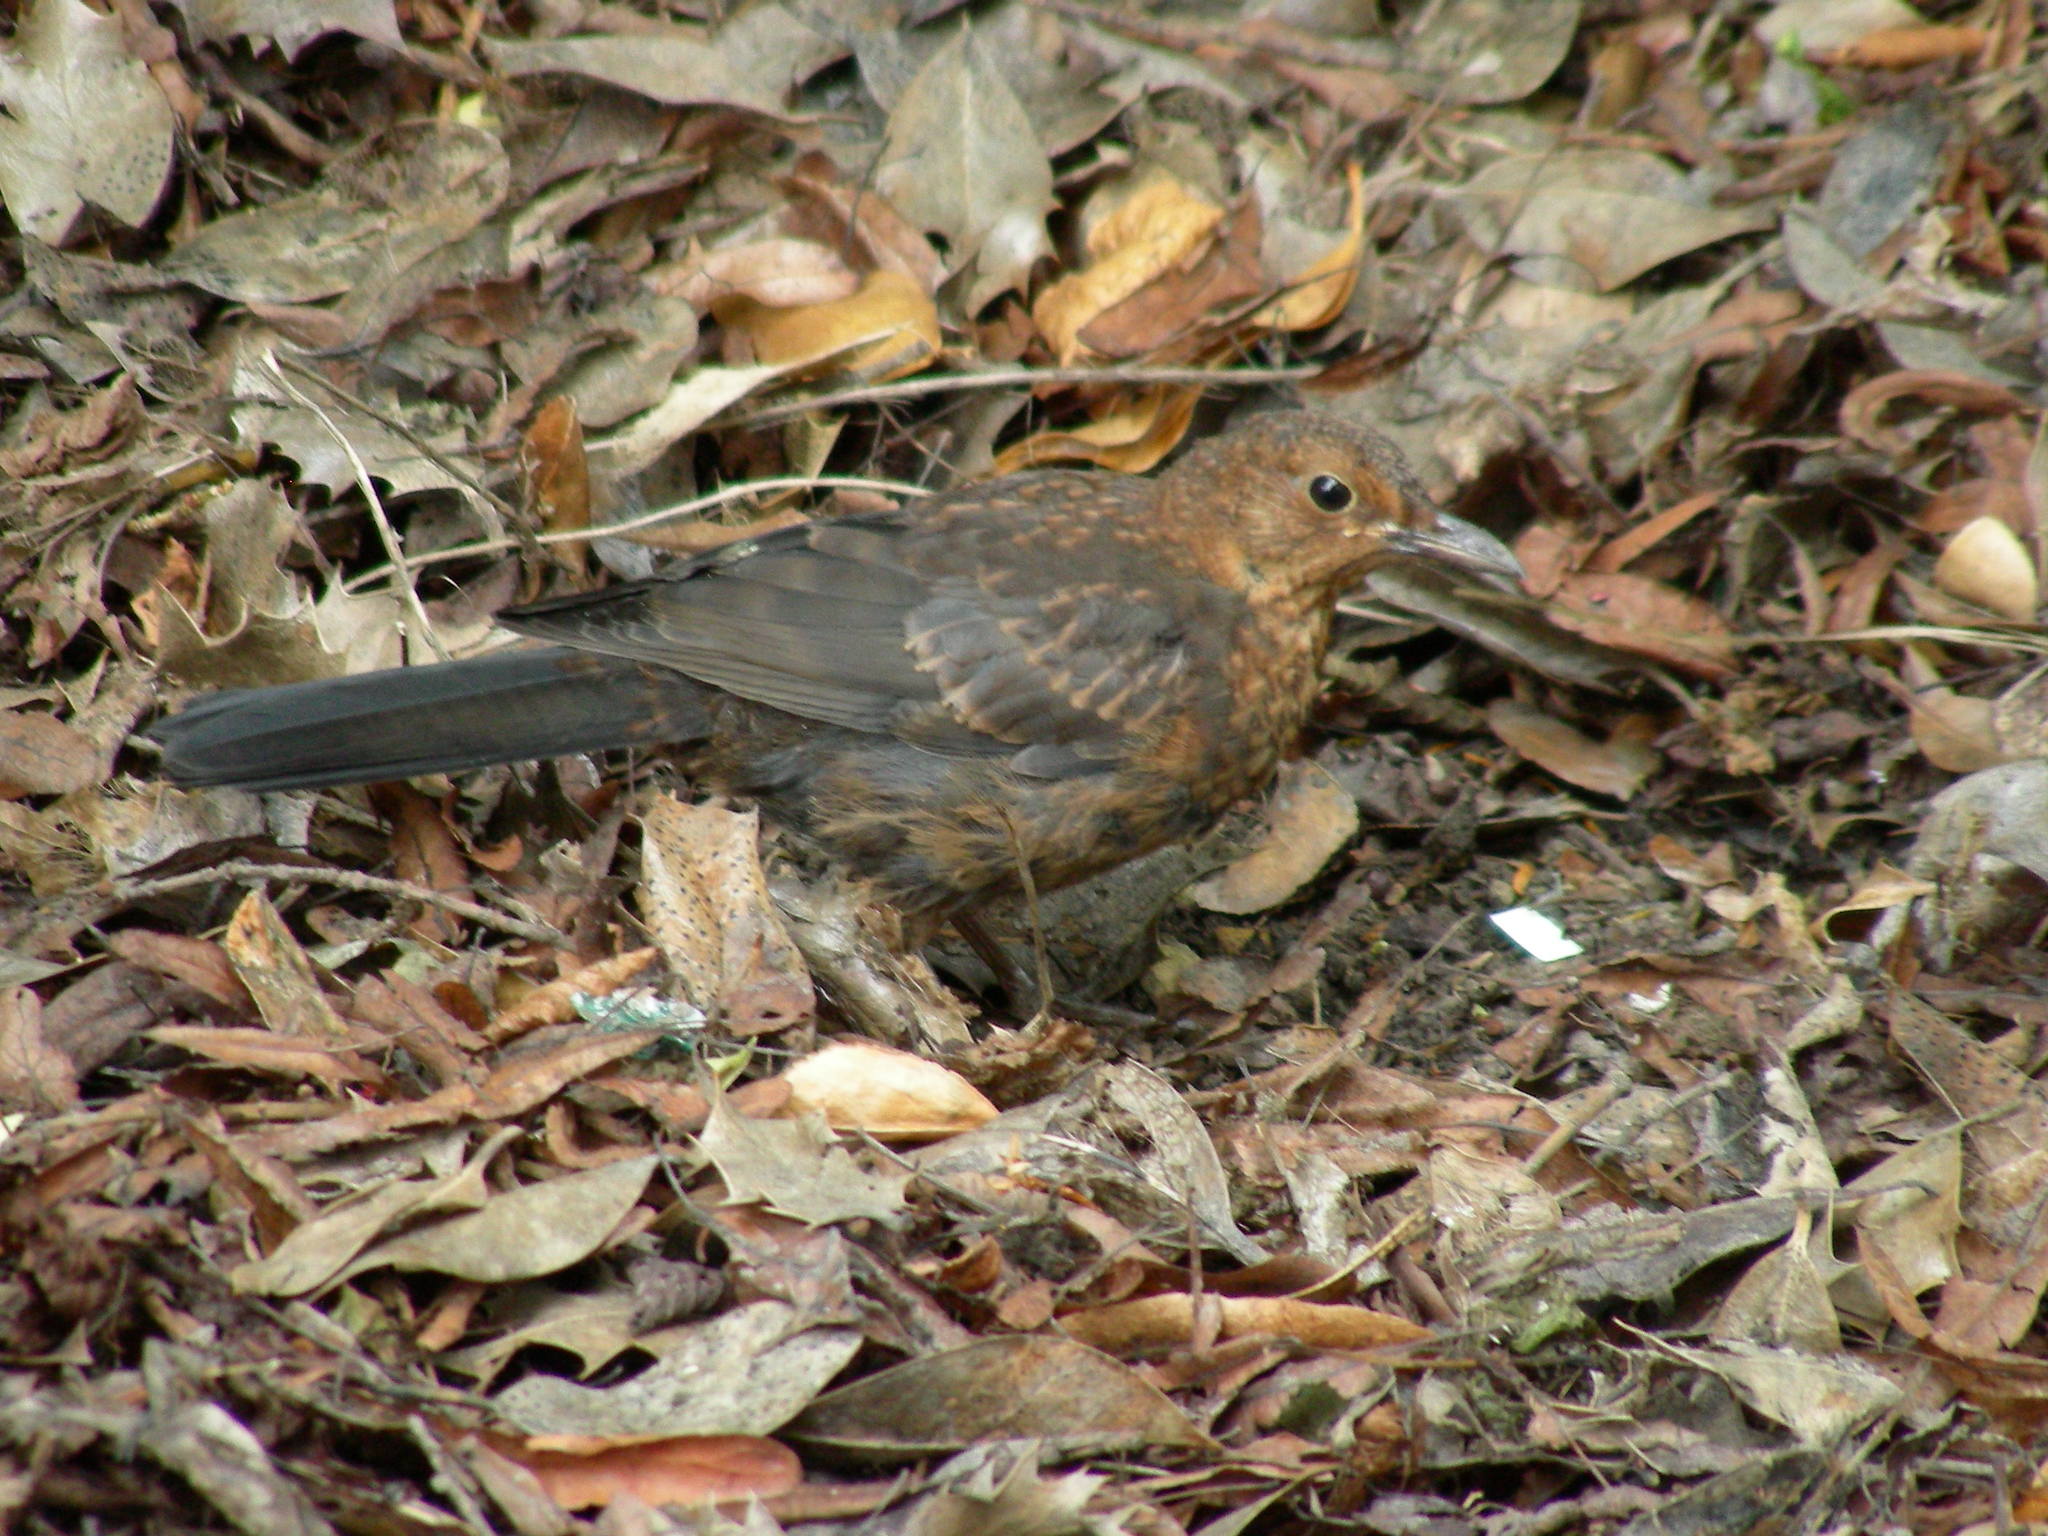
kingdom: Animalia
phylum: Chordata
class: Aves
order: Passeriformes
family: Turdidae
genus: Turdus
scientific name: Turdus merula
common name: Common blackbird
